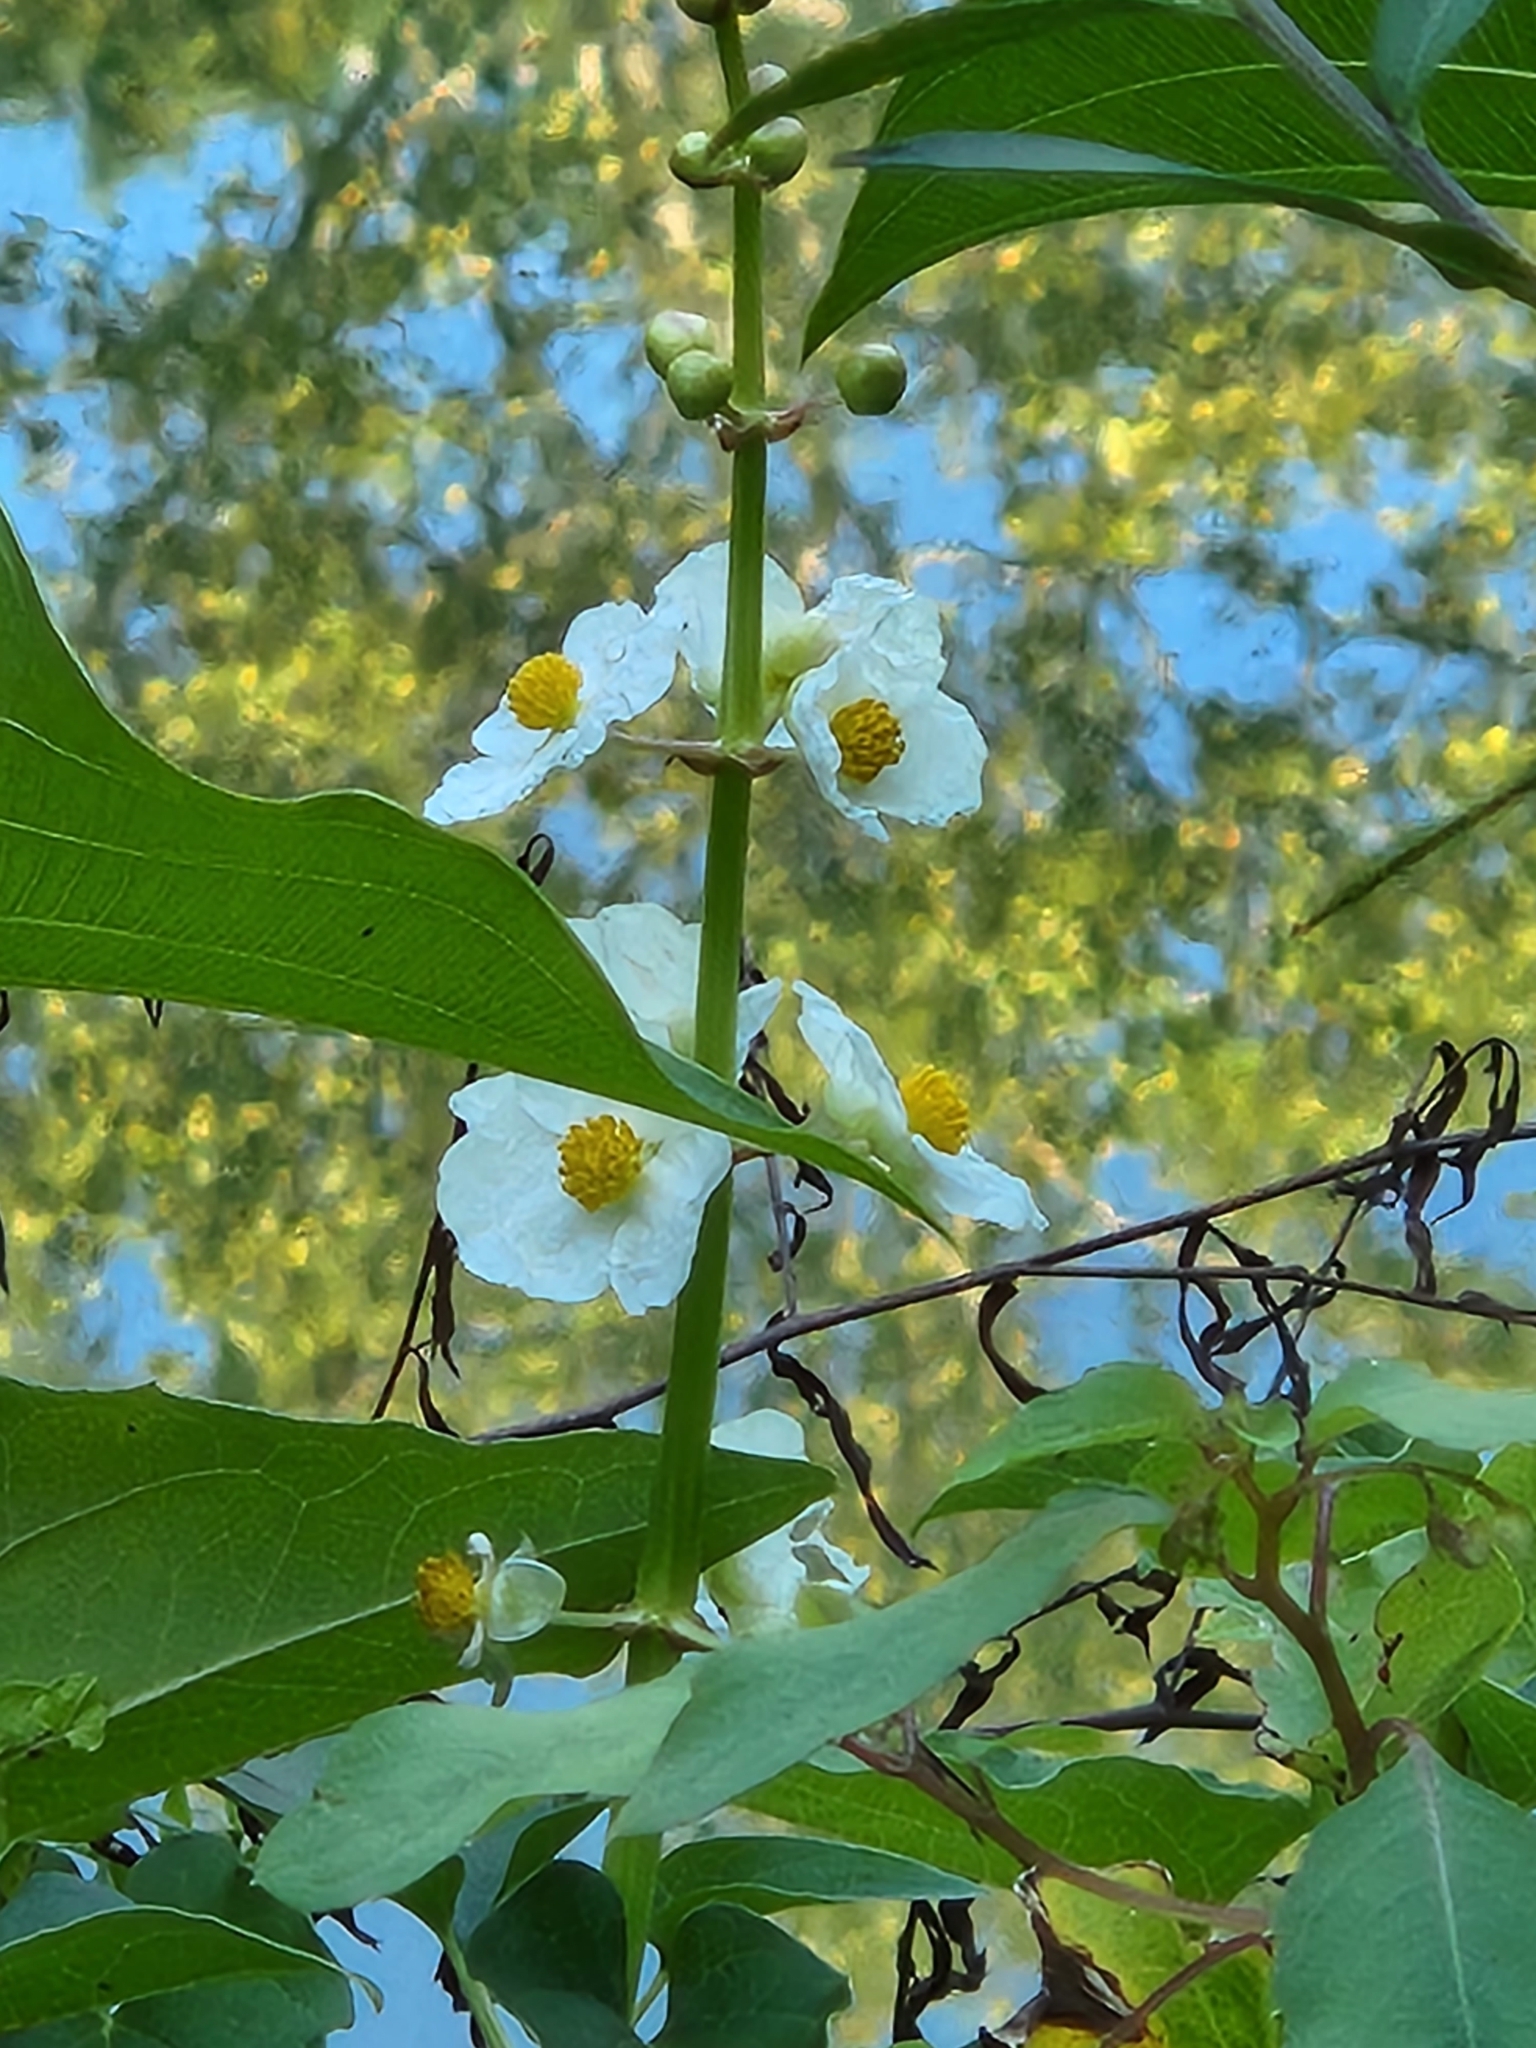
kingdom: Plantae
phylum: Tracheophyta
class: Liliopsida
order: Alismatales
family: Alismataceae
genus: Sagittaria
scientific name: Sagittaria latifolia
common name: Duck-potato
